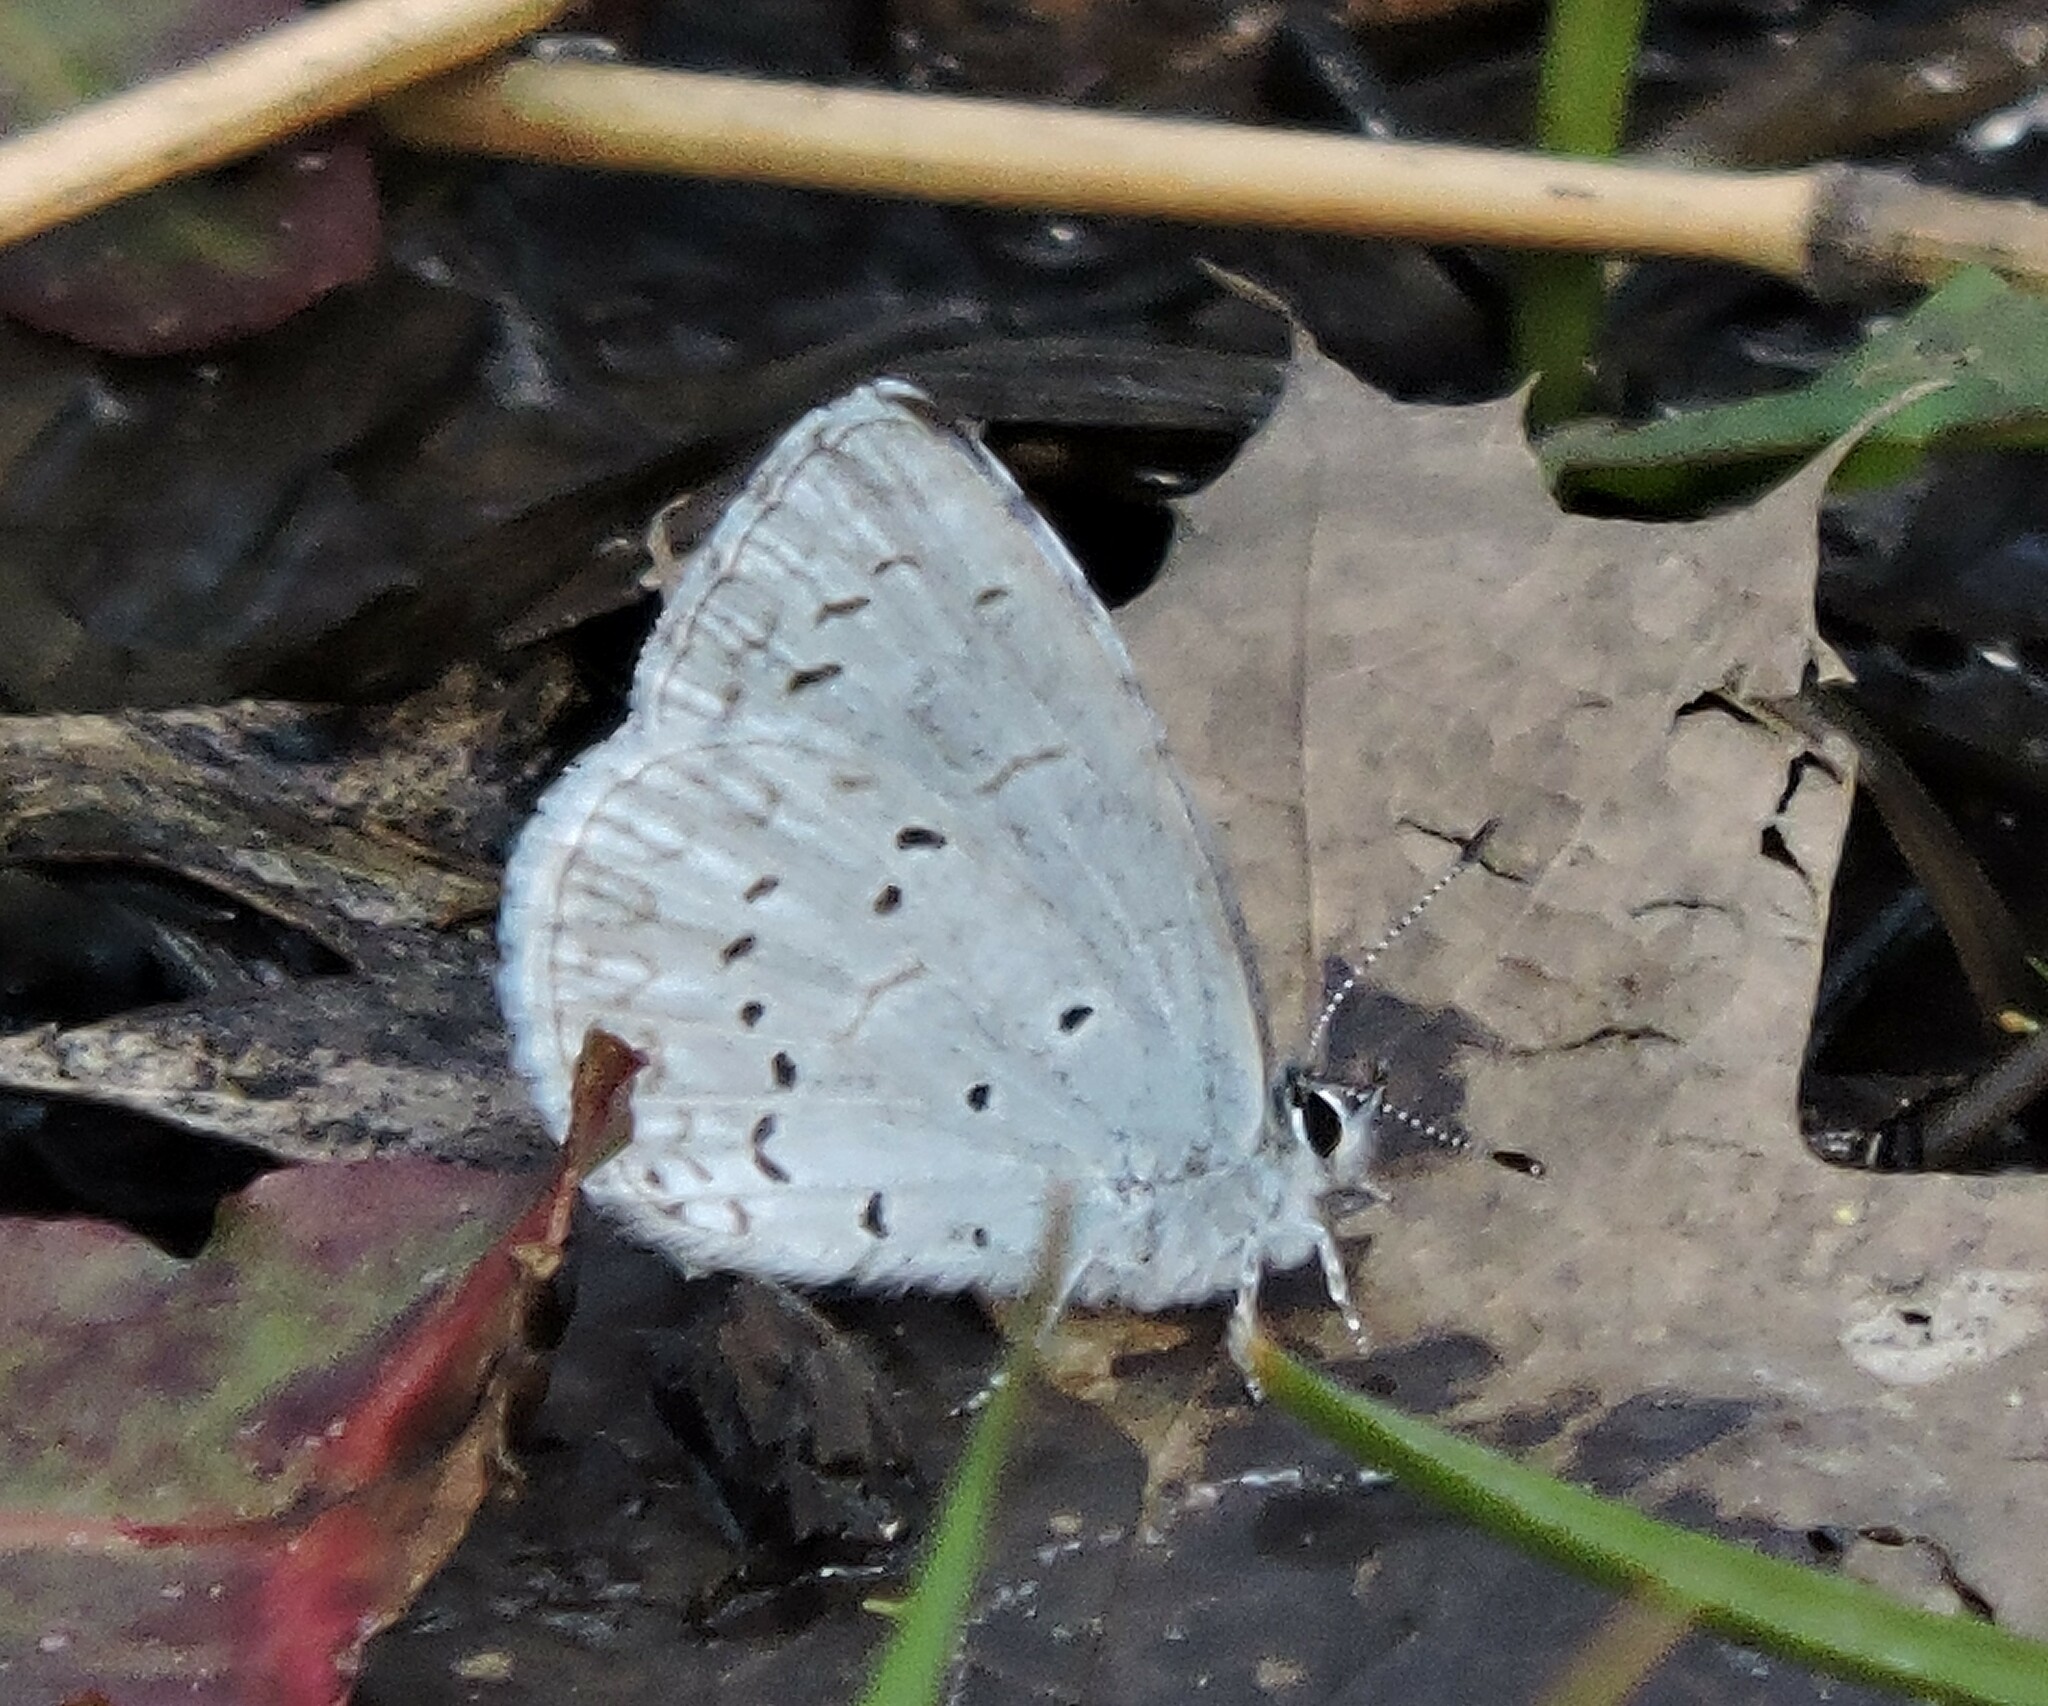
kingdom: Animalia
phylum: Arthropoda
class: Insecta
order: Lepidoptera
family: Lycaenidae
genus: Celastrina
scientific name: Celastrina ladon
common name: Spring azure
